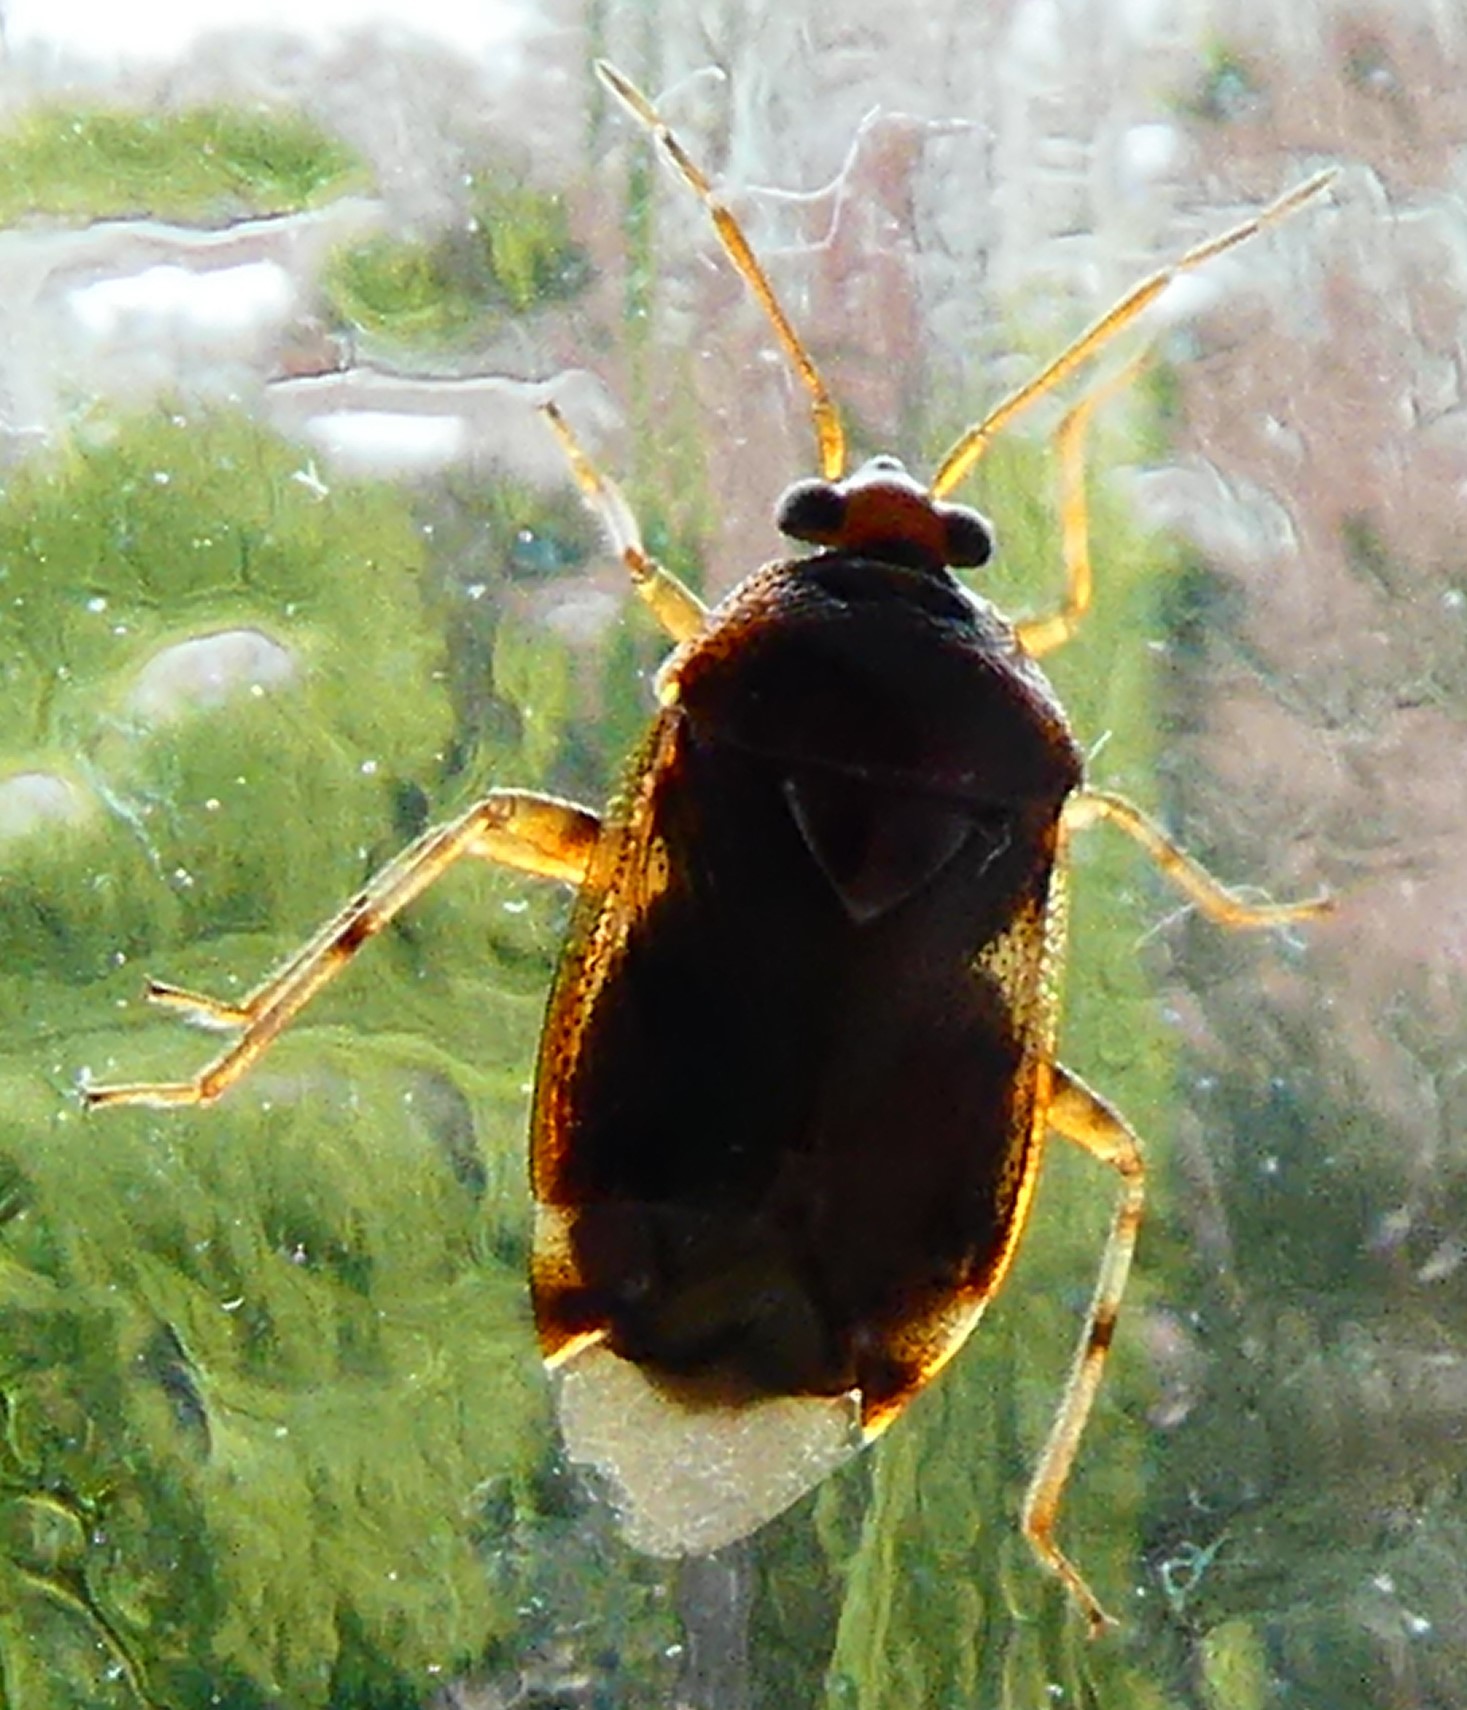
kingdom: Animalia
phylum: Arthropoda
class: Insecta
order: Hemiptera
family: Miridae
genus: Deraeocoris
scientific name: Deraeocoris lutescens
